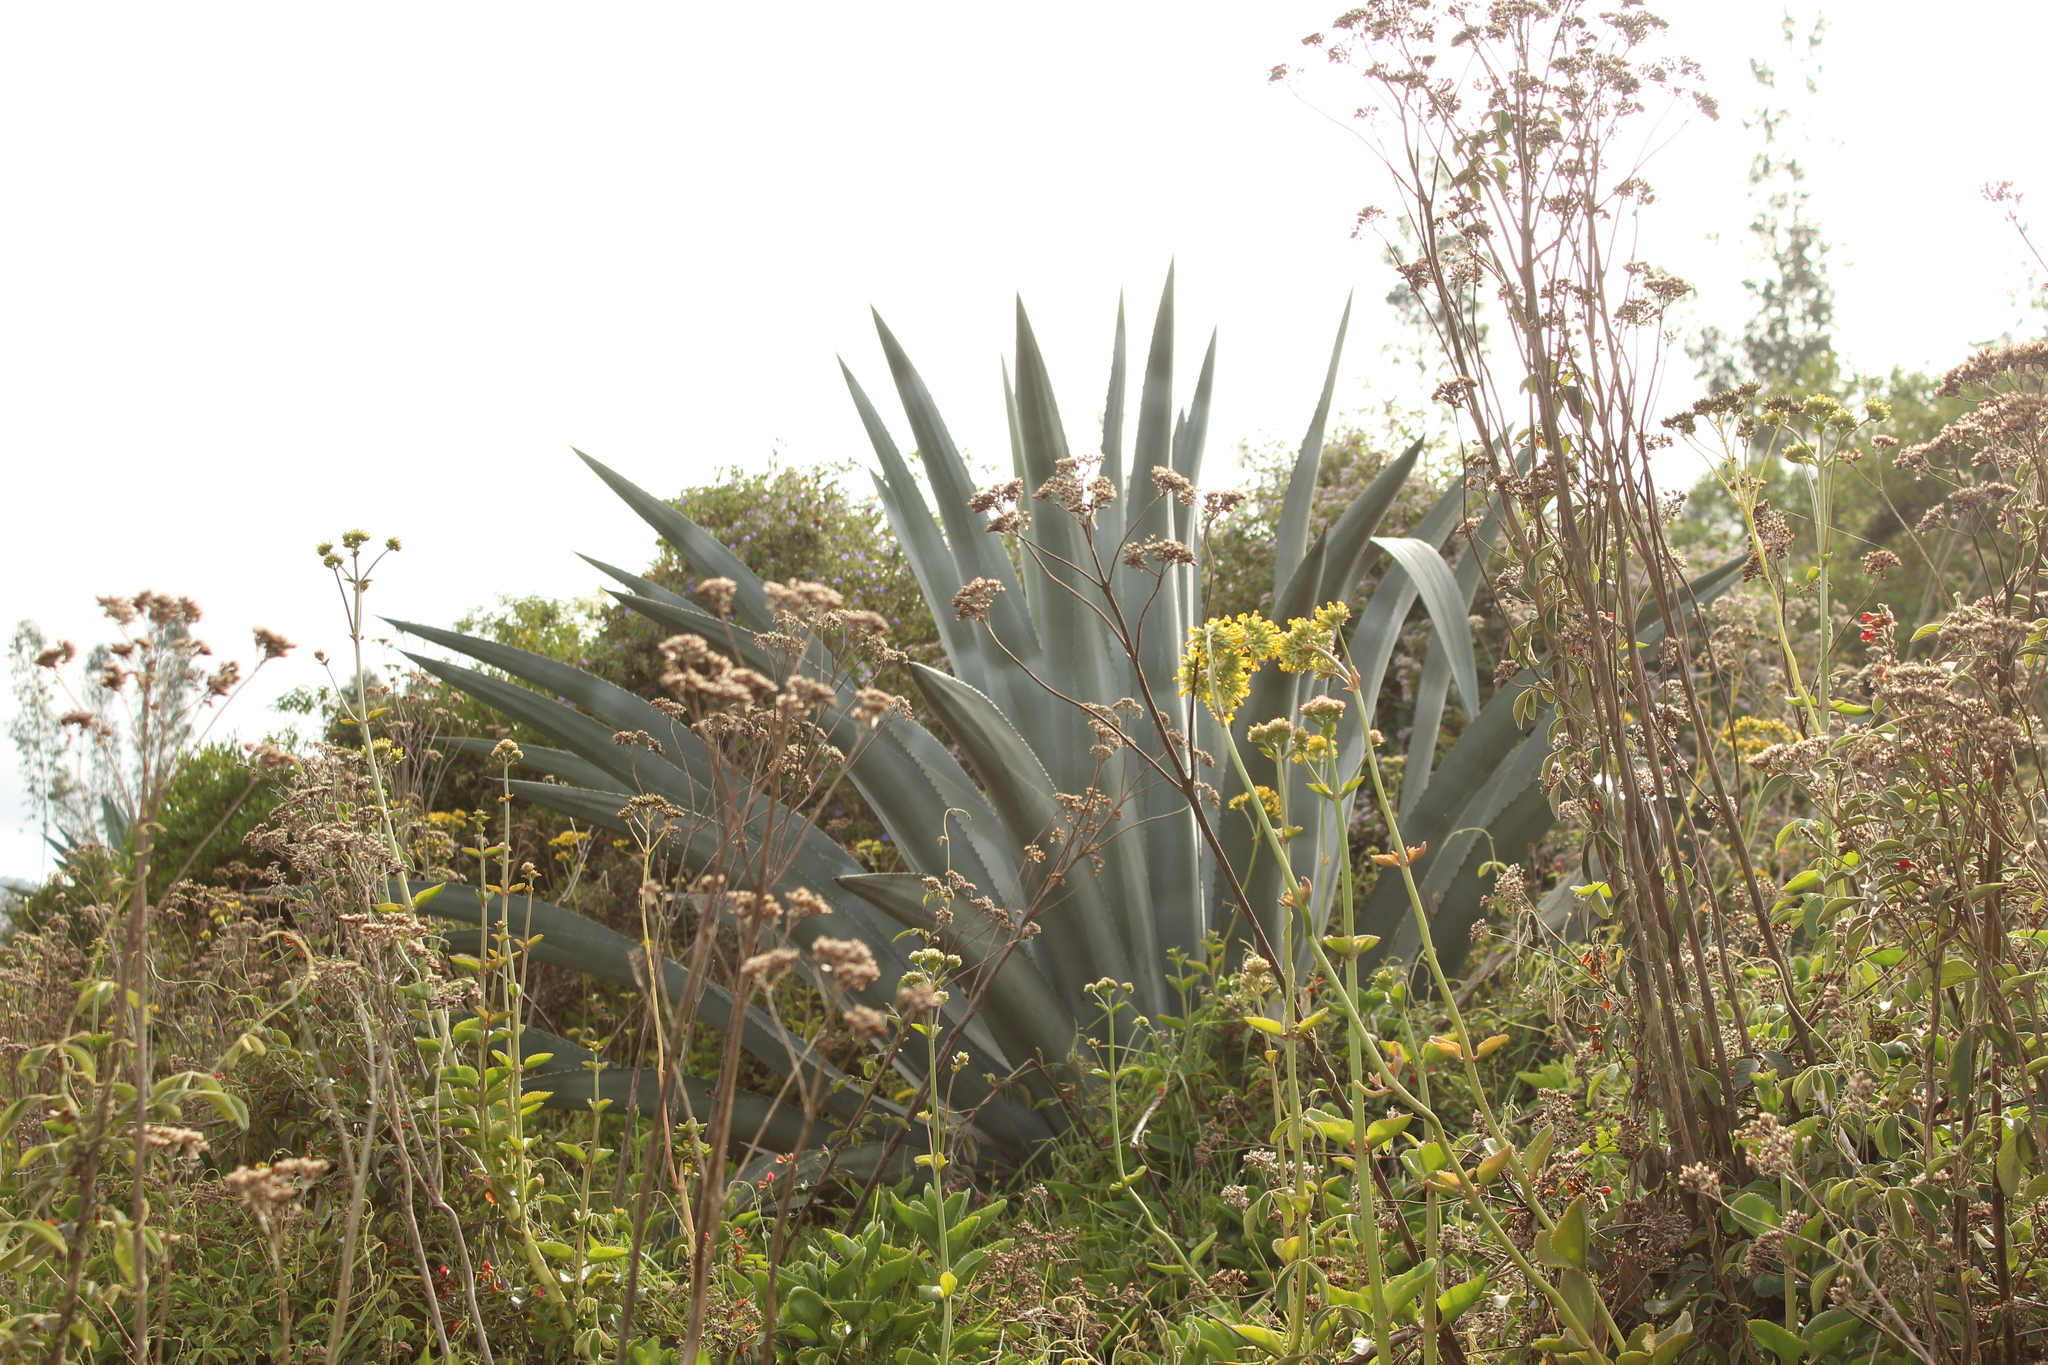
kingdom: Plantae
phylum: Tracheophyta
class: Liliopsida
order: Asparagales
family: Asparagaceae
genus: Agave
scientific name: Agave americana
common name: Centuryplant
